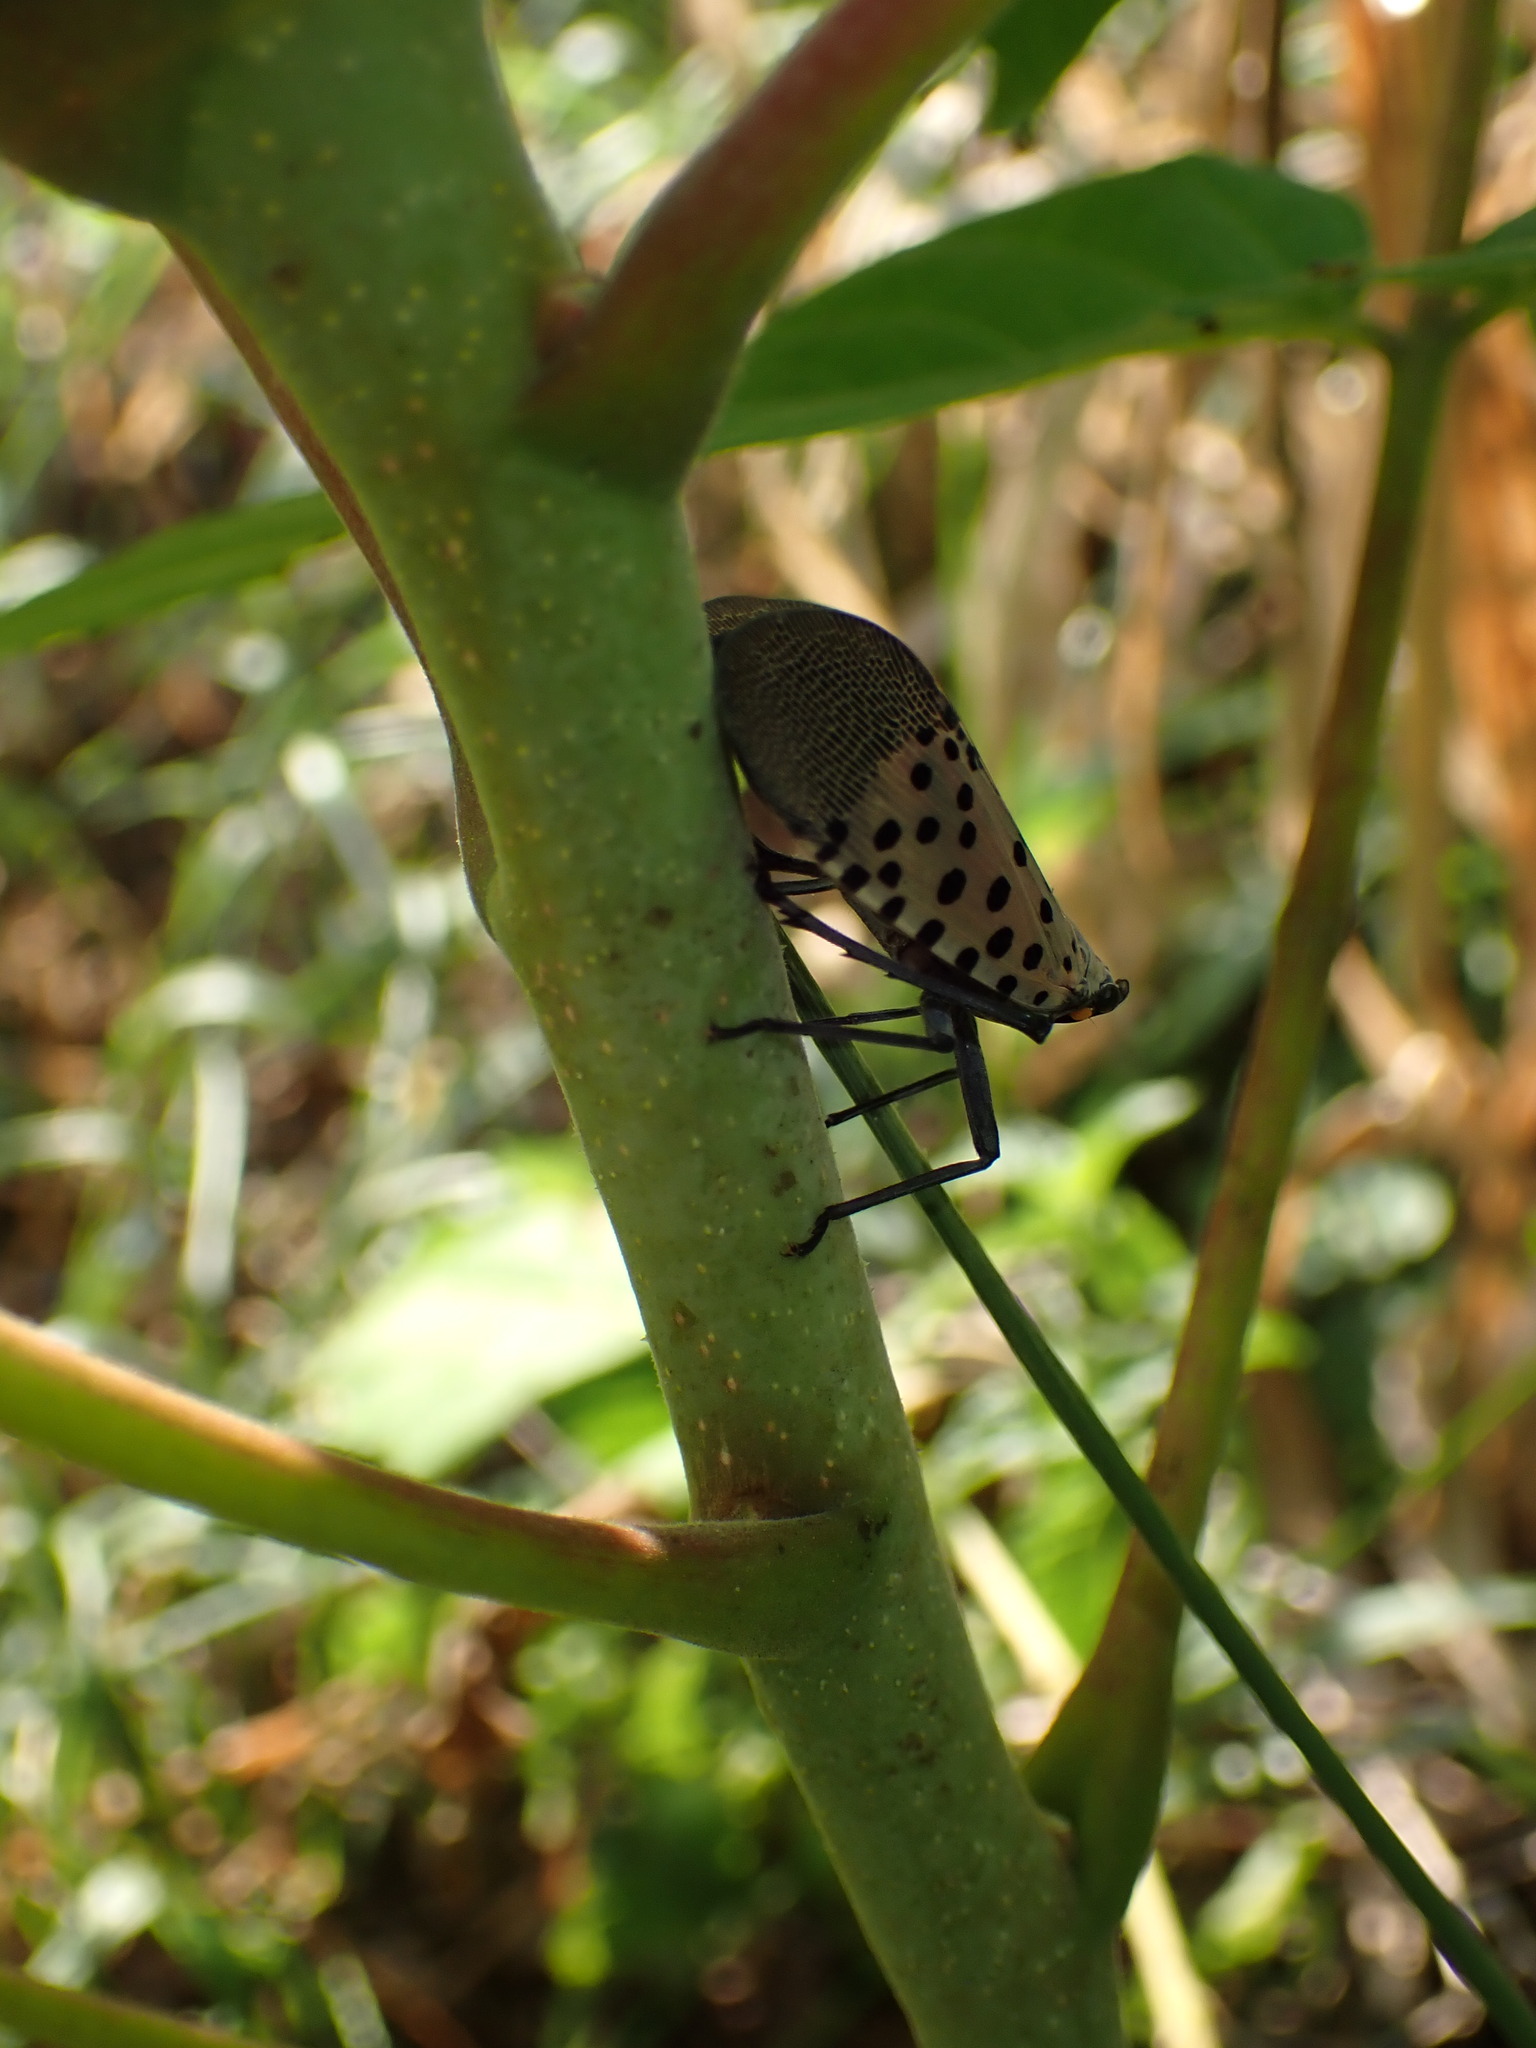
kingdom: Animalia
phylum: Arthropoda
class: Insecta
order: Hemiptera
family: Fulgoridae
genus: Lycorma
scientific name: Lycorma delicatula
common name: Spotted lanternfly
